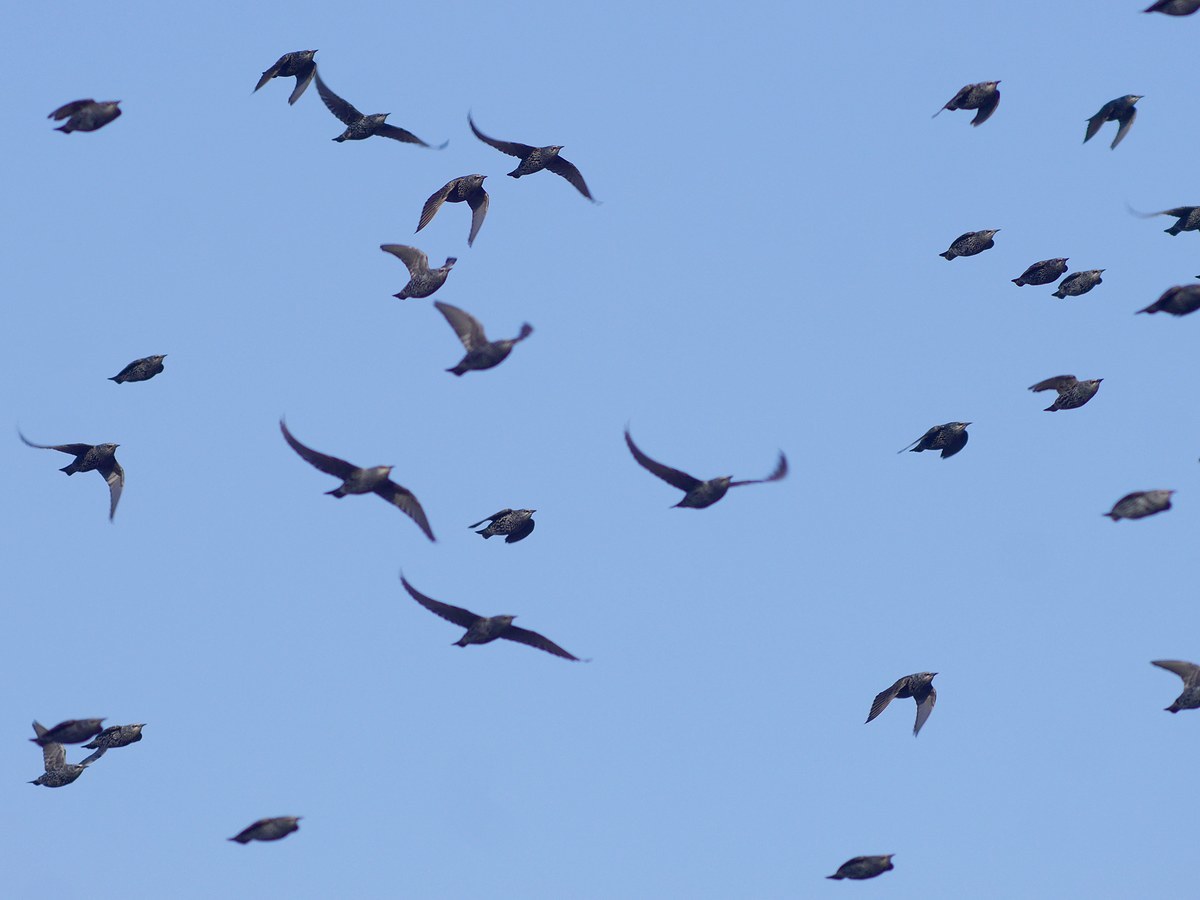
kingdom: Animalia
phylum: Chordata
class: Aves
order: Passeriformes
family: Sturnidae
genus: Sturnus
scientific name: Sturnus vulgaris
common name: Common starling
